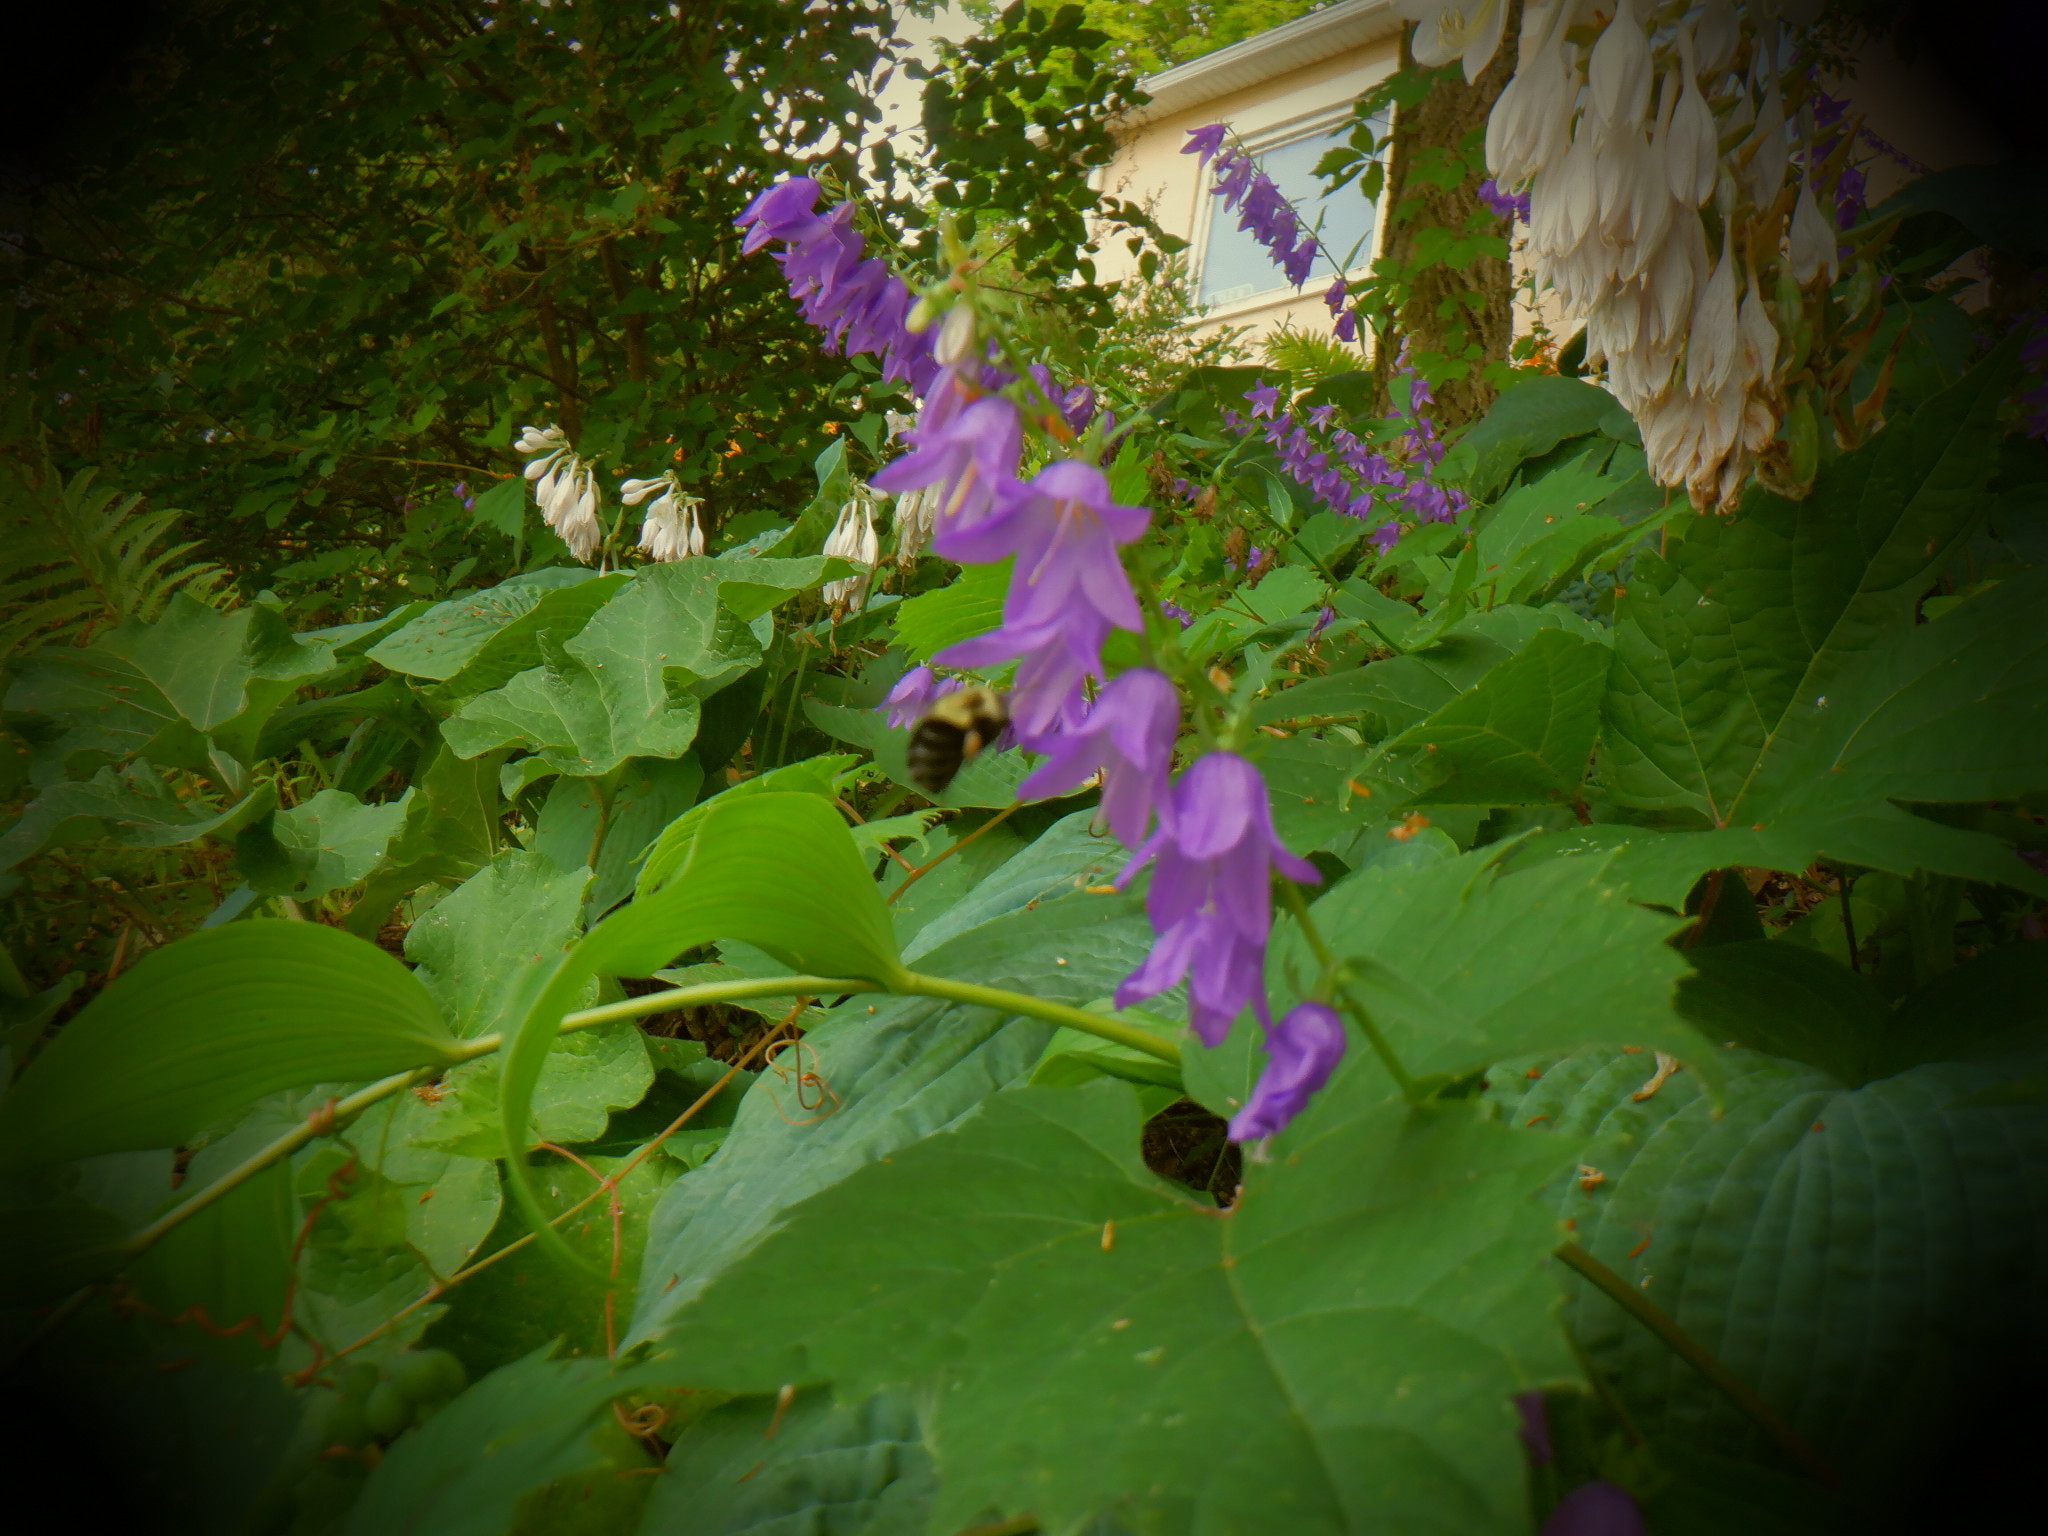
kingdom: Plantae
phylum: Tracheophyta
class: Magnoliopsida
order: Asterales
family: Campanulaceae
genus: Campanula
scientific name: Campanula rapunculoides
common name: Creeping bellflower
